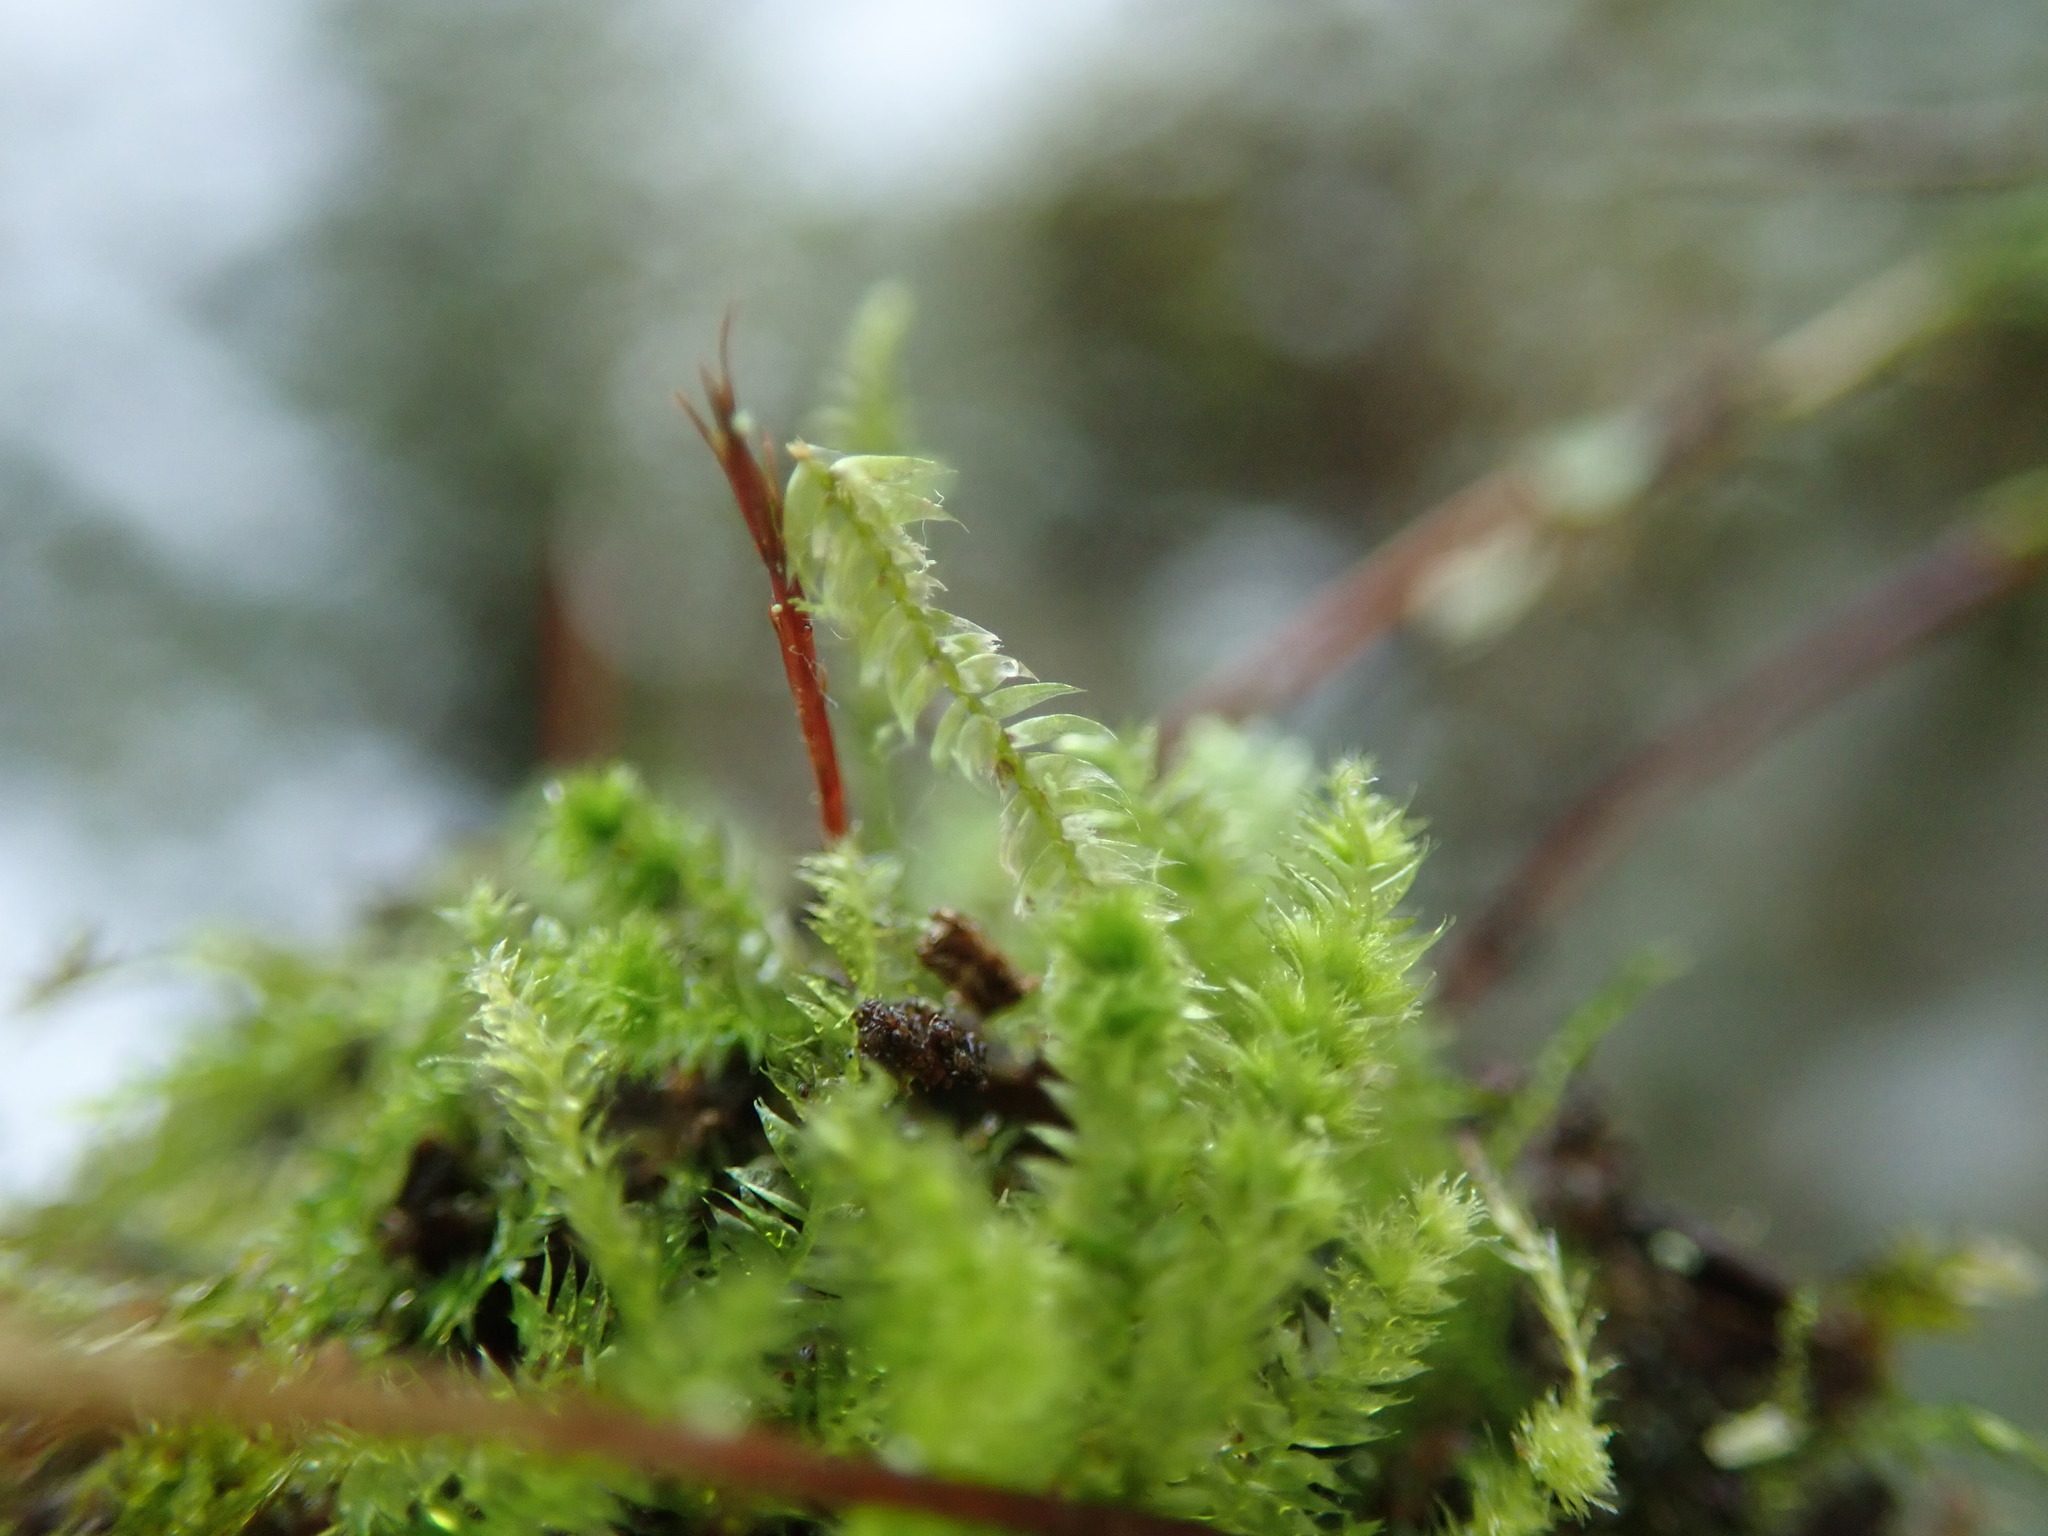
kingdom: Plantae
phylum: Bryophyta
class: Bryopsida
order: Hypnales
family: Plagiotheciaceae
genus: Pseudotaxiphyllum
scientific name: Pseudotaxiphyllum elegans
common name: Elegant silk moss
